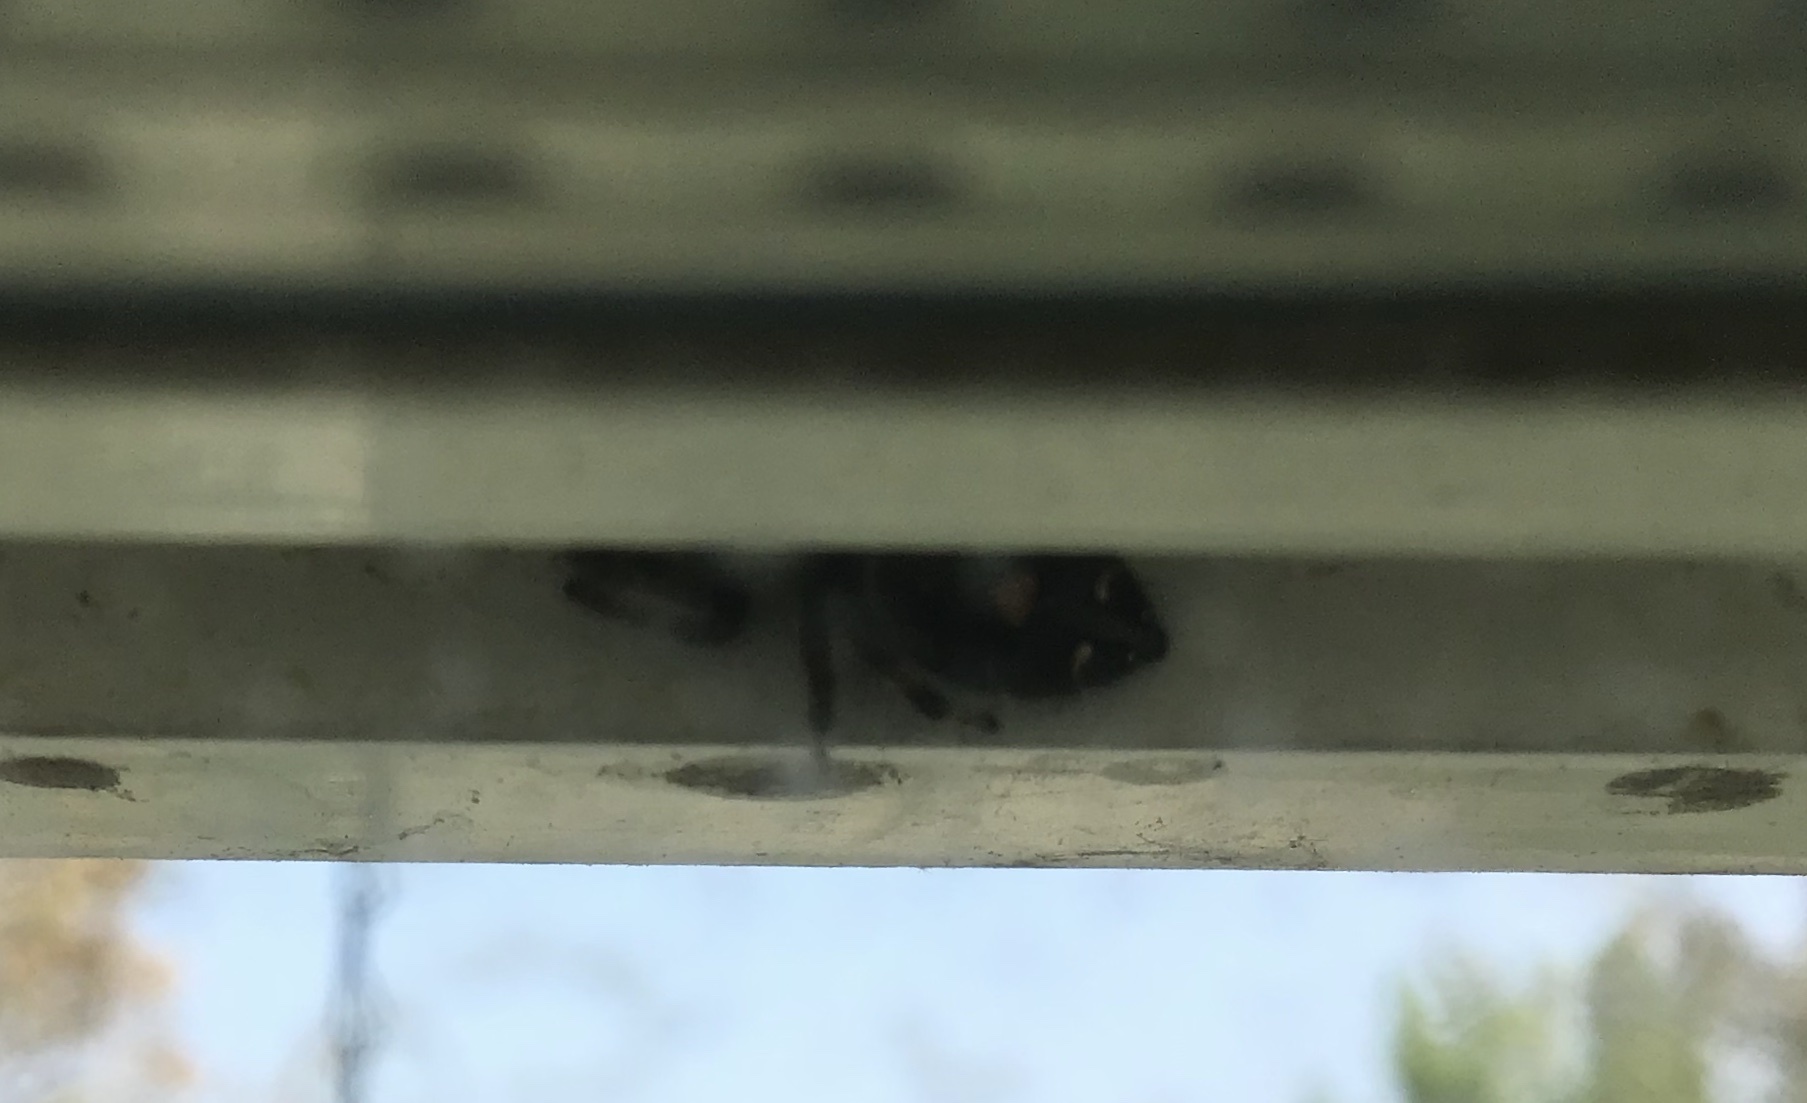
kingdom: Animalia
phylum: Arthropoda
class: Arachnida
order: Araneae
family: Salticidae
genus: Phidippus
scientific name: Phidippus audax
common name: Bold jumper
